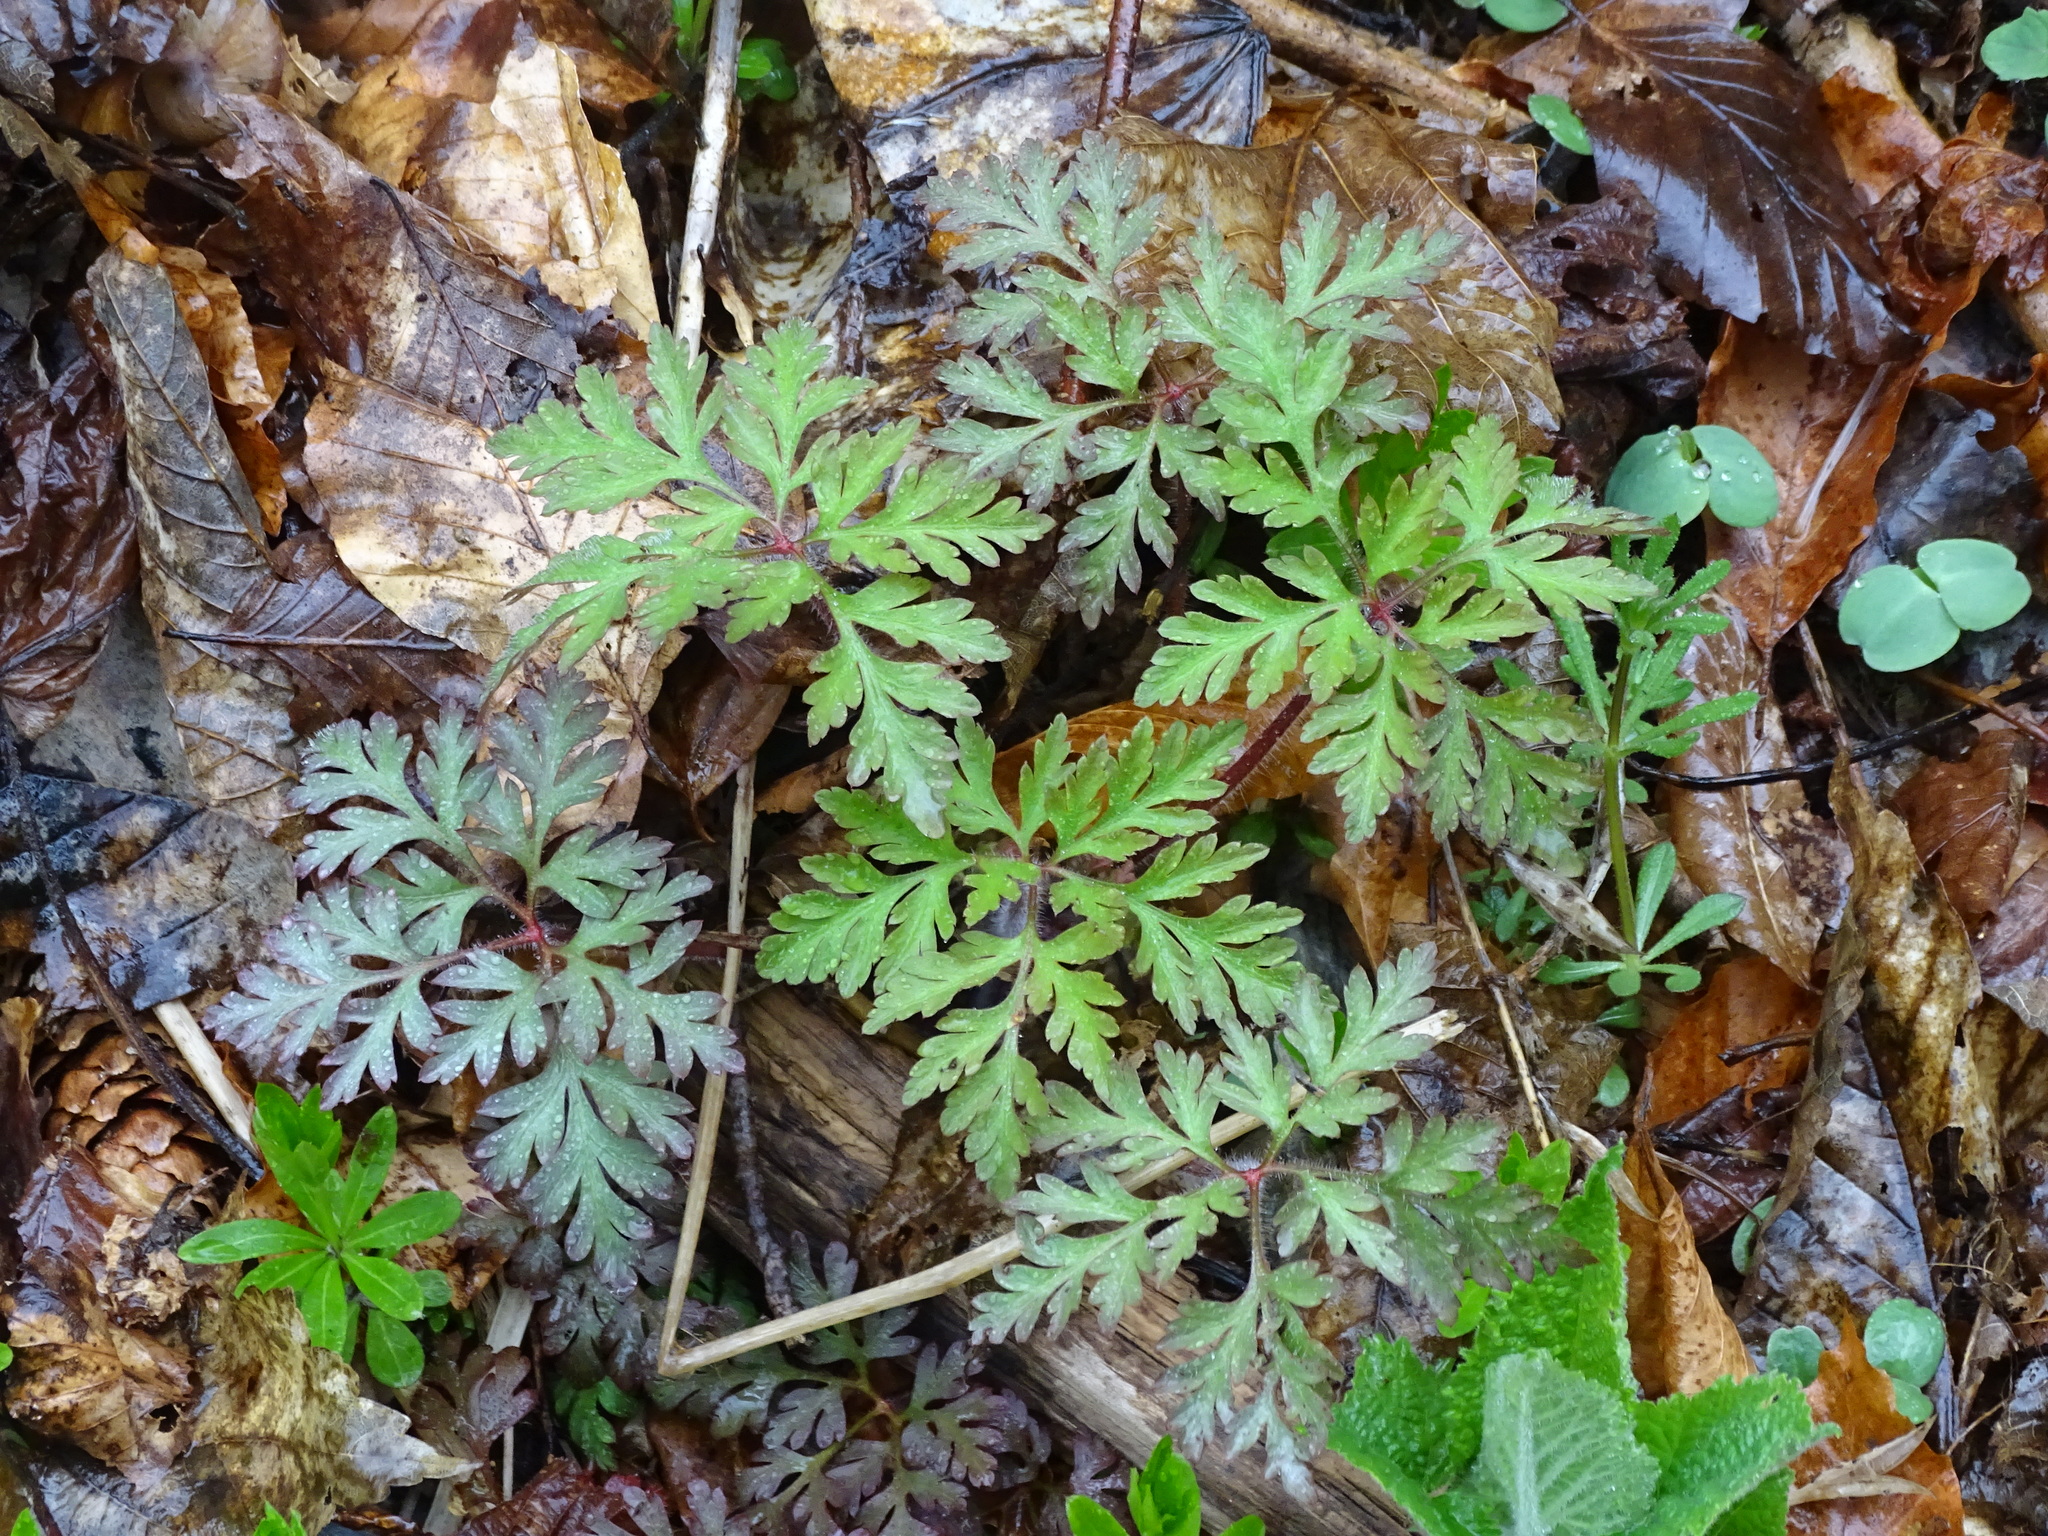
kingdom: Plantae
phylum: Tracheophyta
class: Magnoliopsida
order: Geraniales
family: Geraniaceae
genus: Geranium
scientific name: Geranium robertianum
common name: Herb-robert
